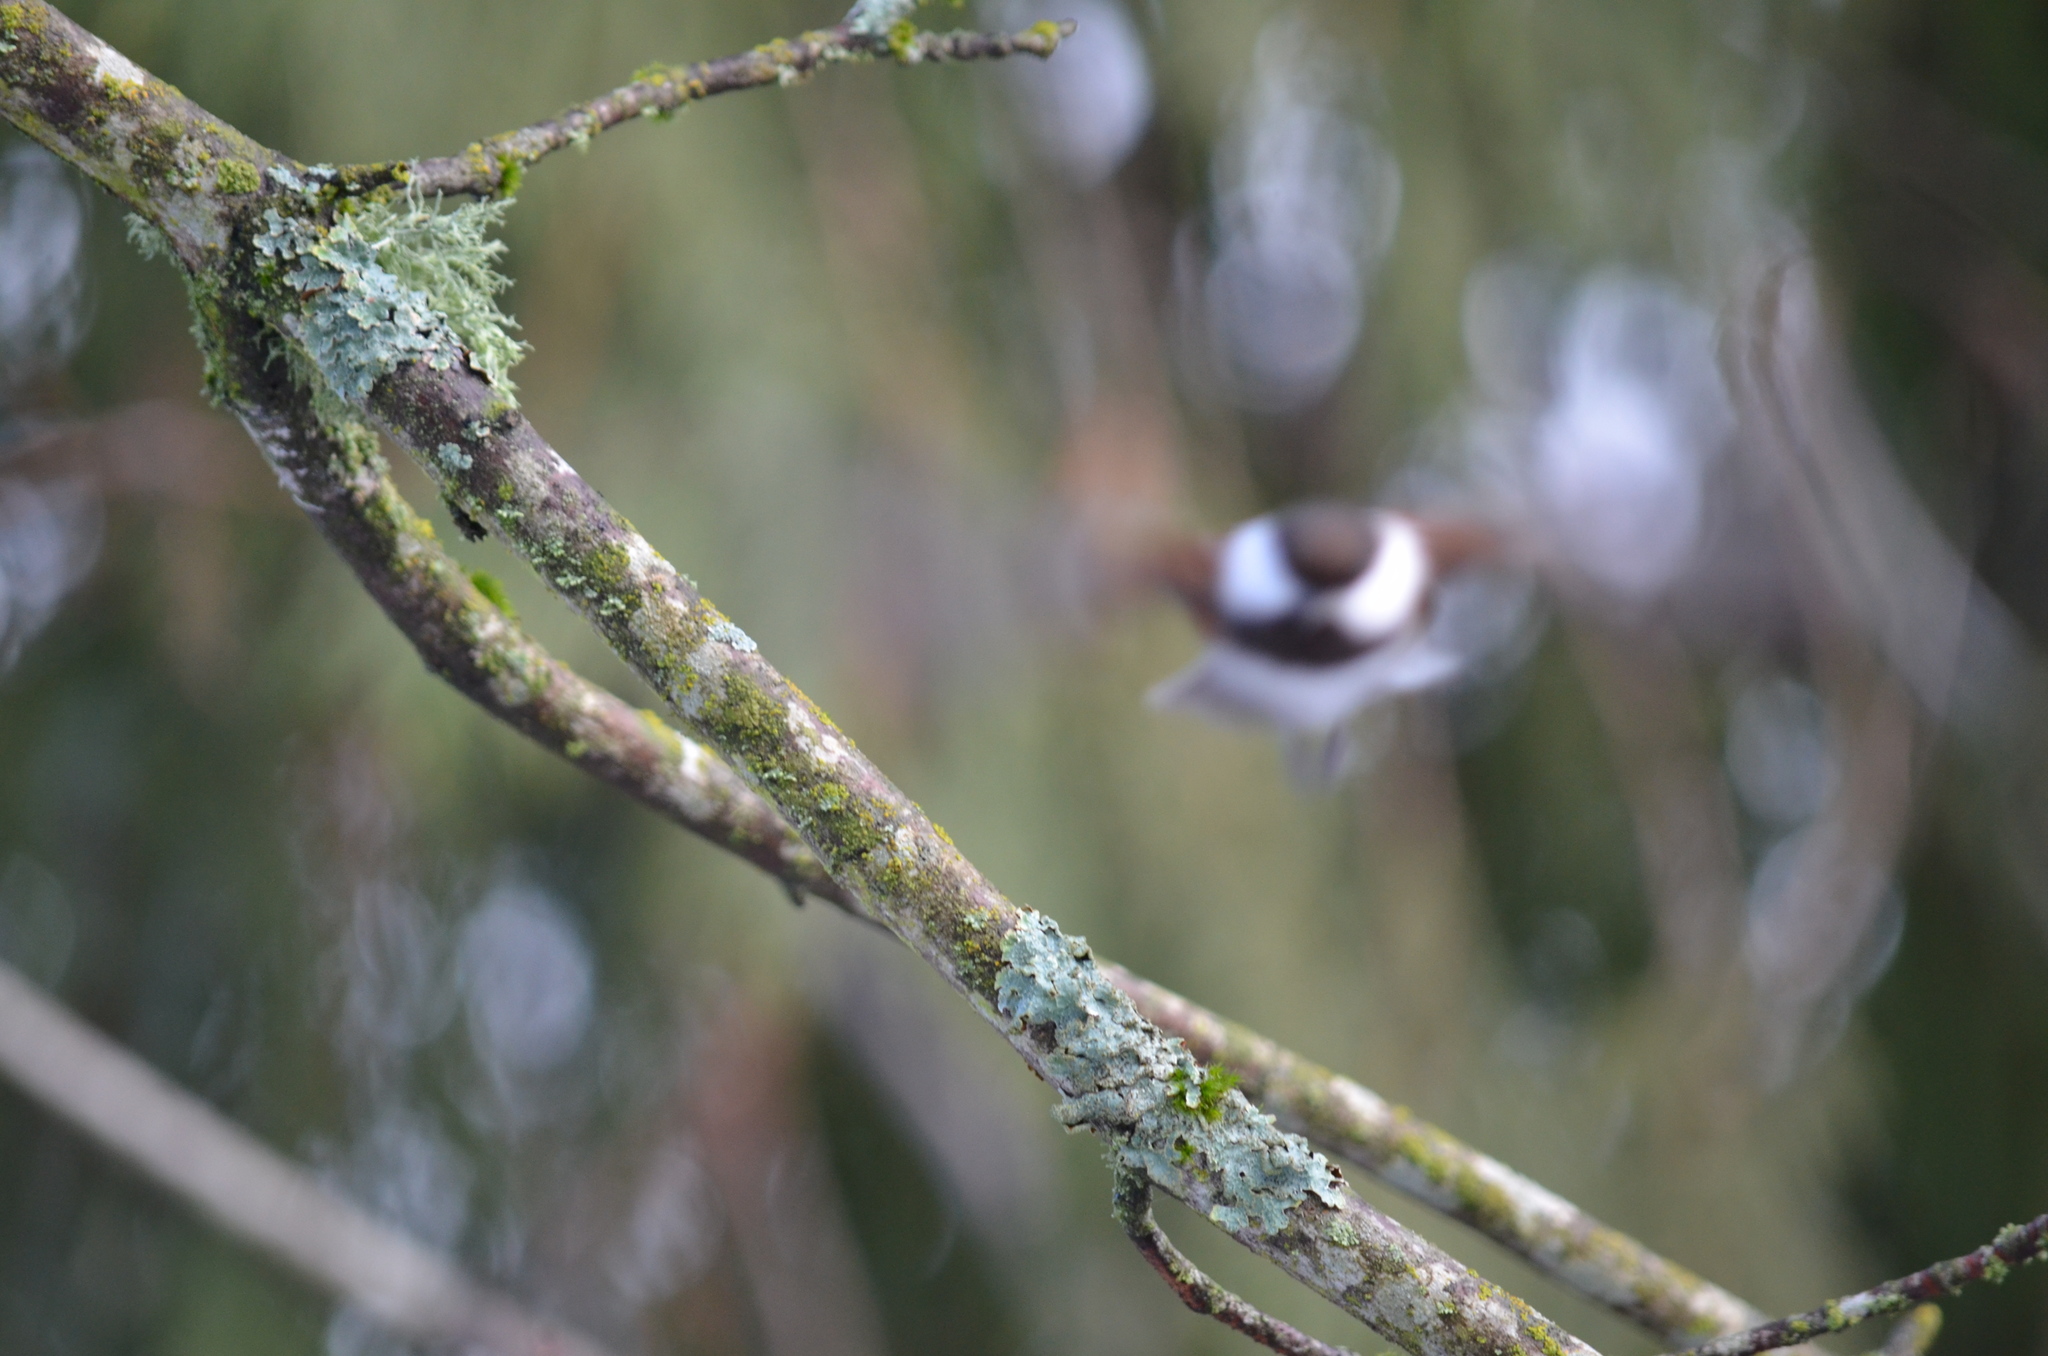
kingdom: Animalia
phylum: Chordata
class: Aves
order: Passeriformes
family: Paridae
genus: Poecile
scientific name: Poecile rufescens
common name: Chestnut-backed chickadee
